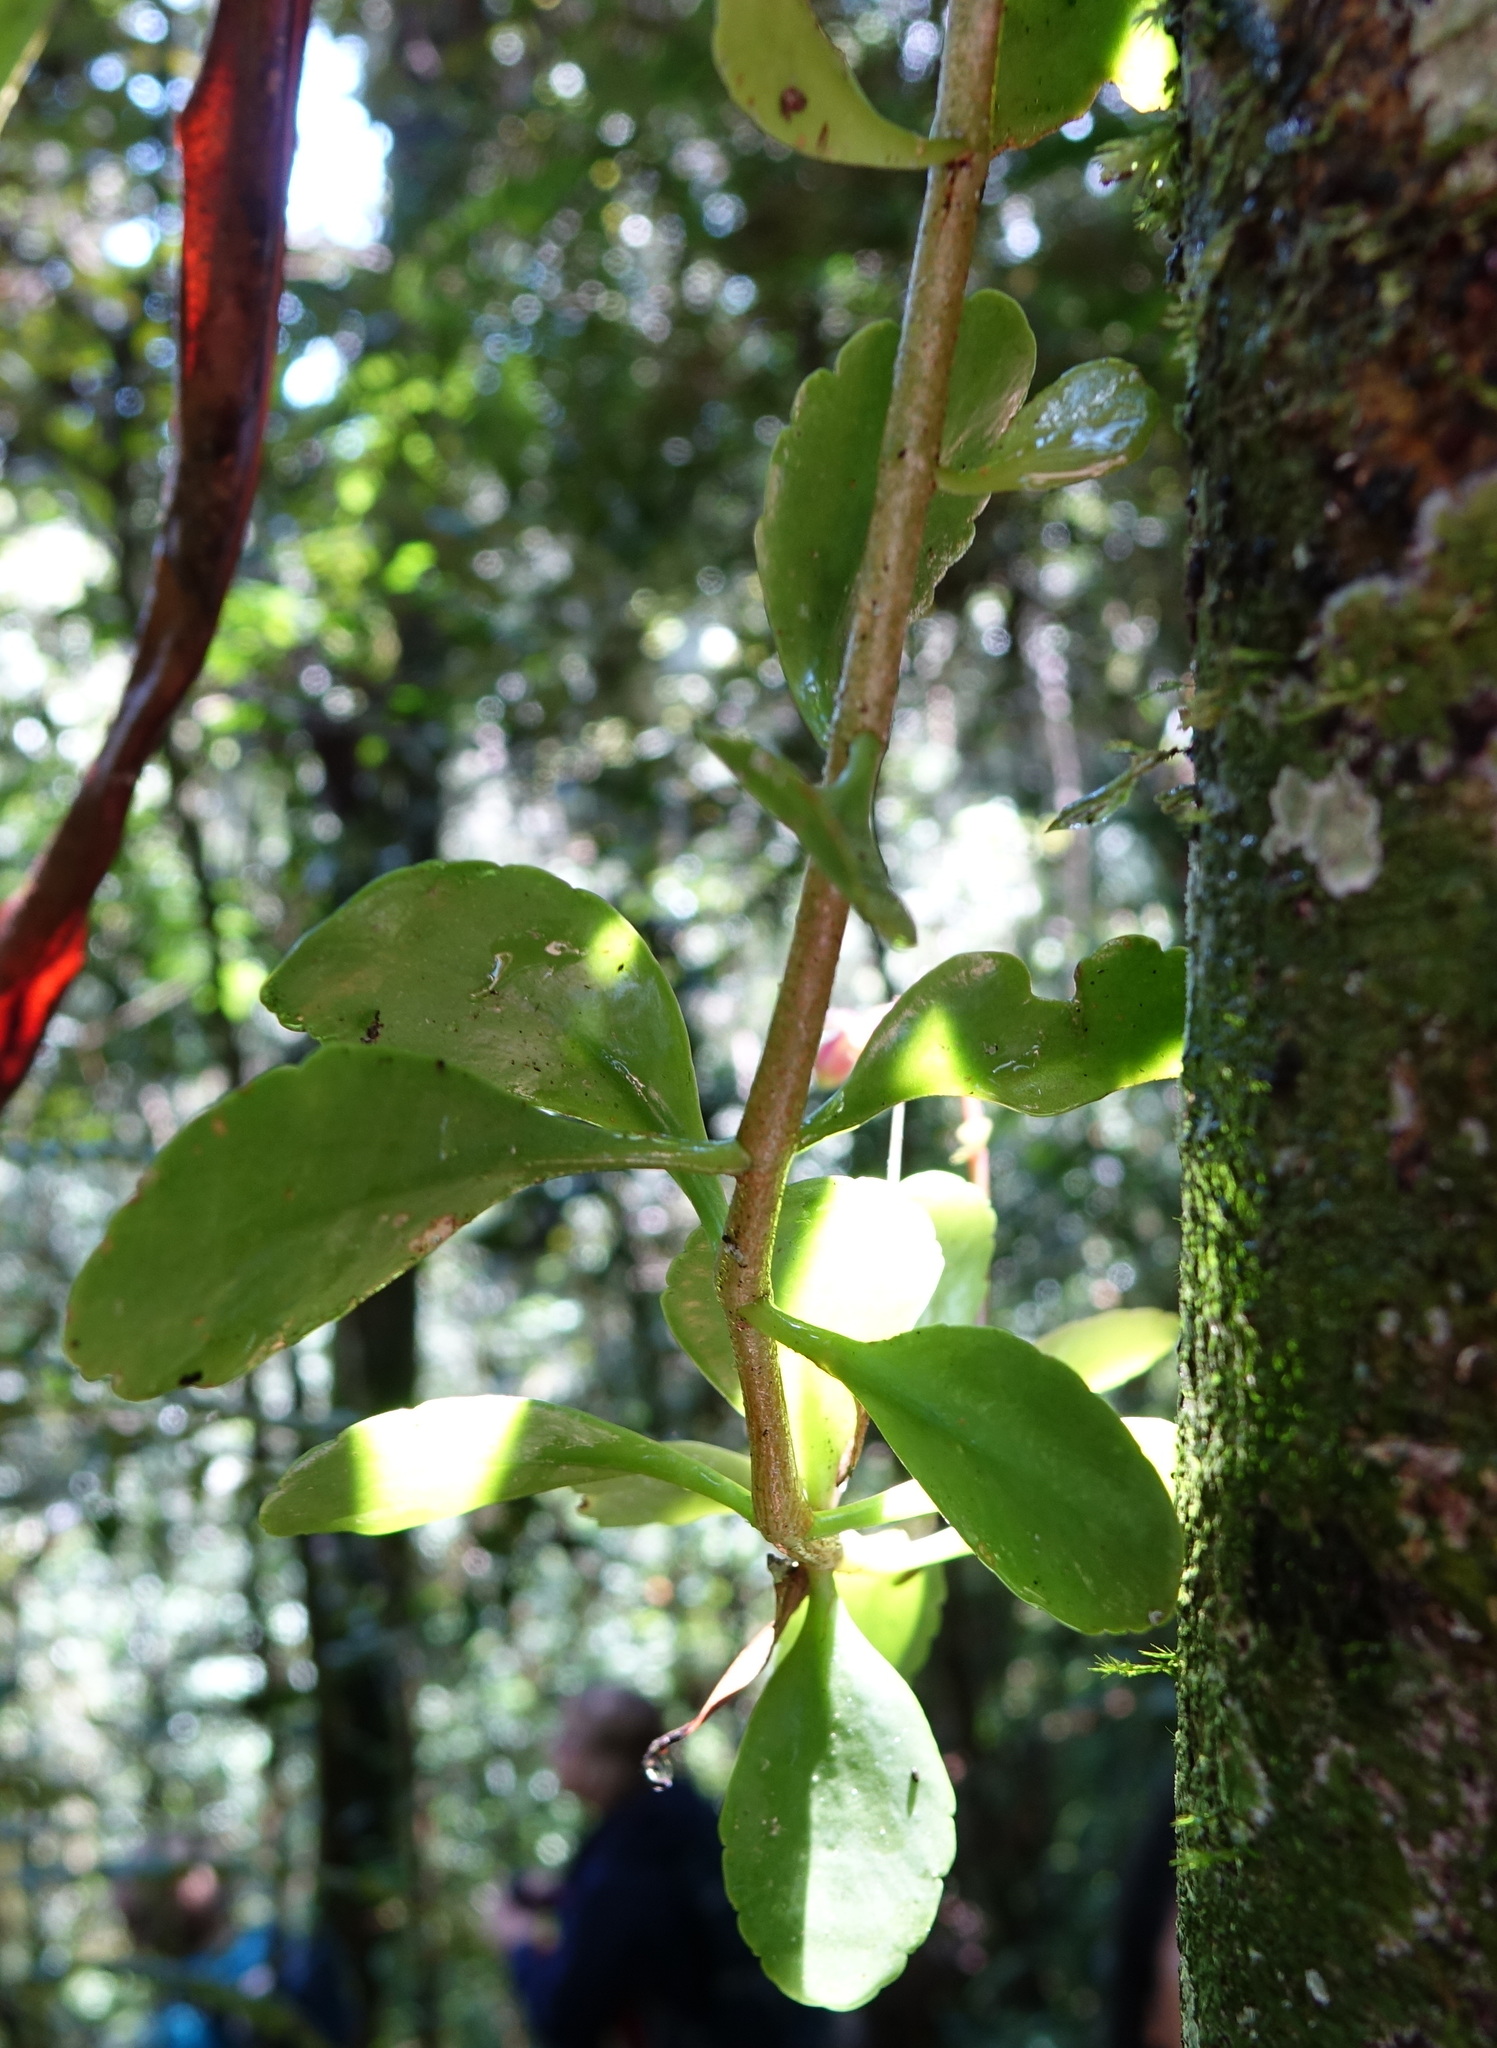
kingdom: Plantae
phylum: Tracheophyta
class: Magnoliopsida
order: Saxifragales
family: Crassulaceae
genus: Kalanchoe
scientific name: Kalanchoe porphyrocalyx
